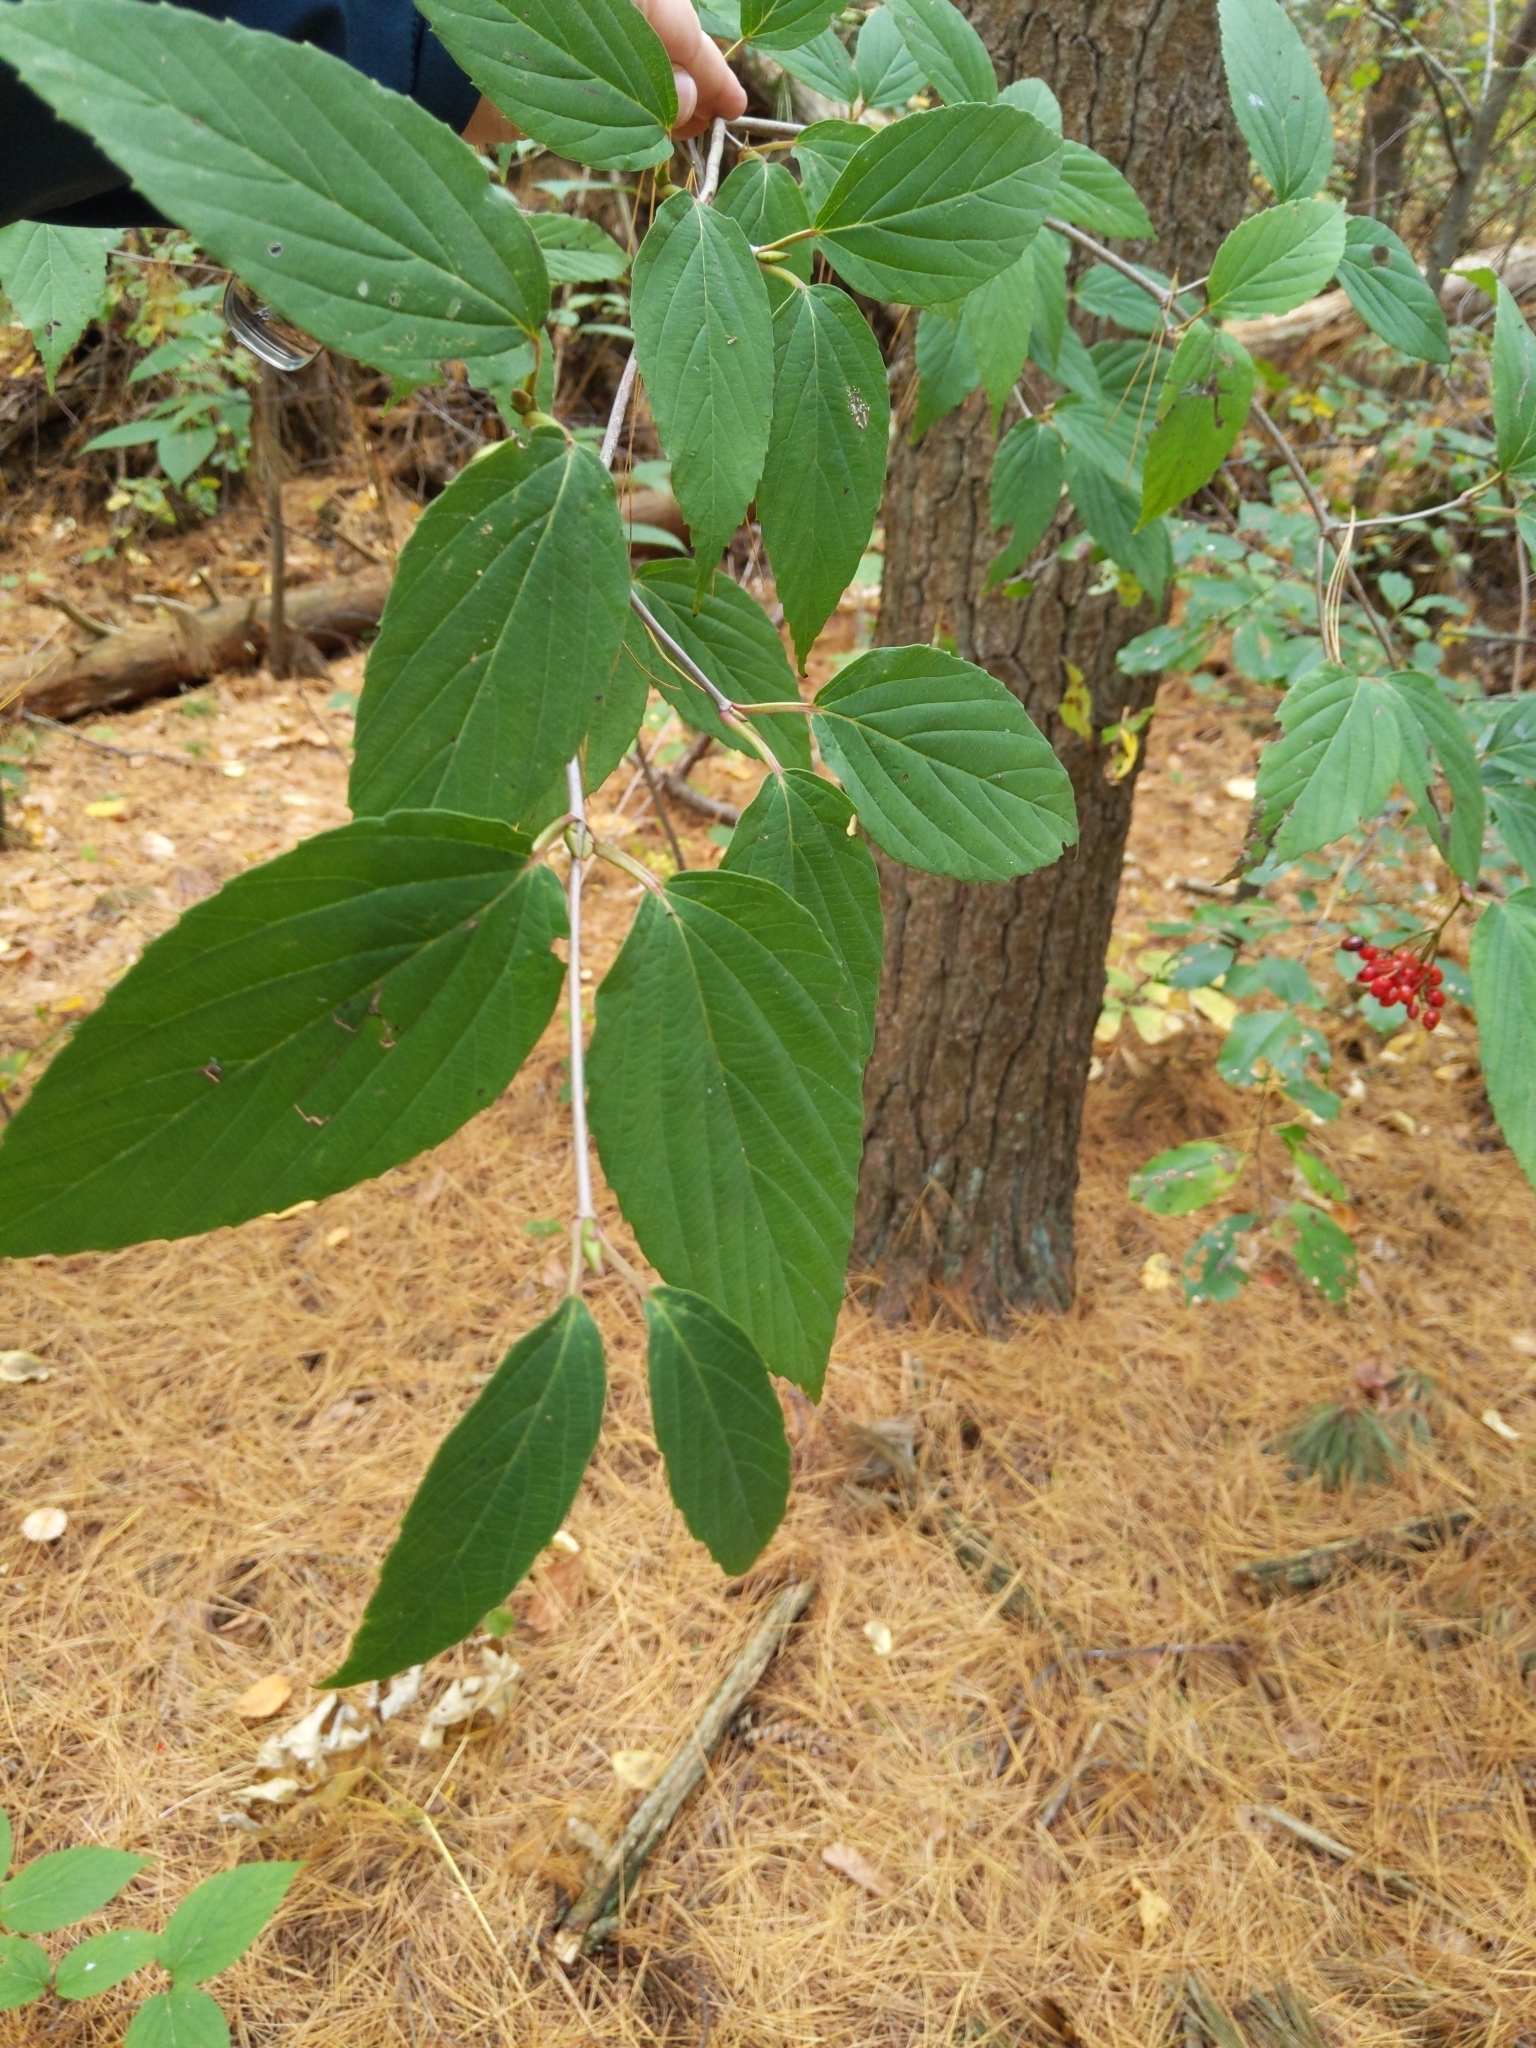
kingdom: Plantae
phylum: Tracheophyta
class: Magnoliopsida
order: Dipsacales
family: Viburnaceae
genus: Viburnum
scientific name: Viburnum setigerum
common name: Tea viburnum
